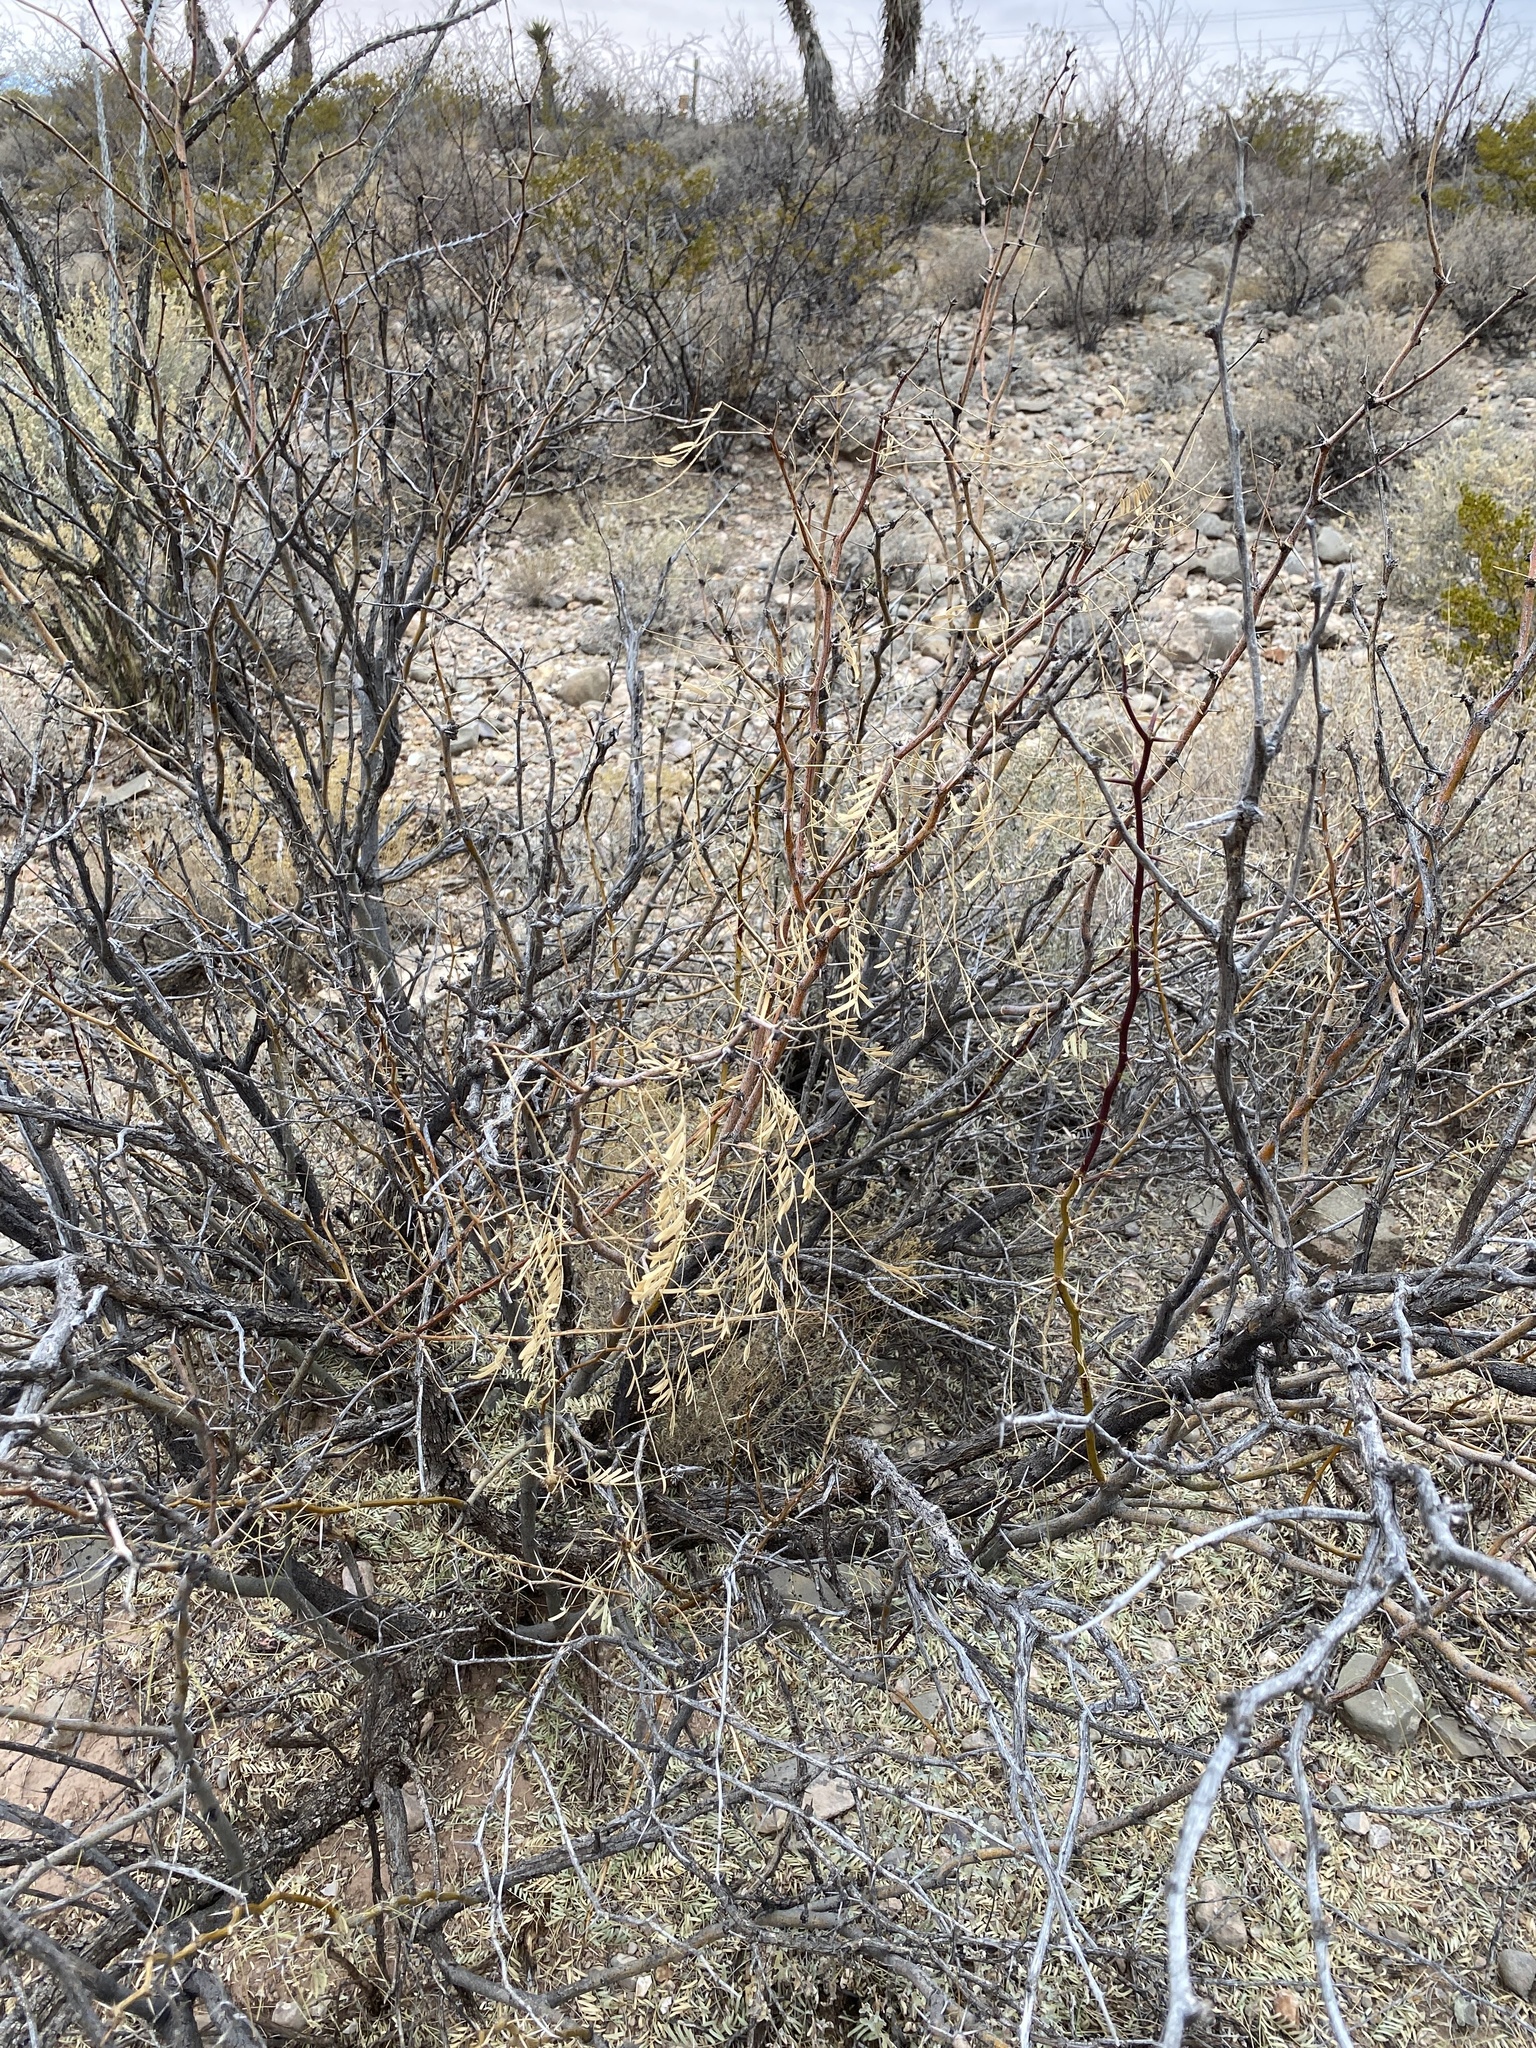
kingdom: Plantae
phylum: Tracheophyta
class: Magnoliopsida
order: Fabales
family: Fabaceae
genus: Prosopis
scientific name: Prosopis glandulosa
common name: Honey mesquite
